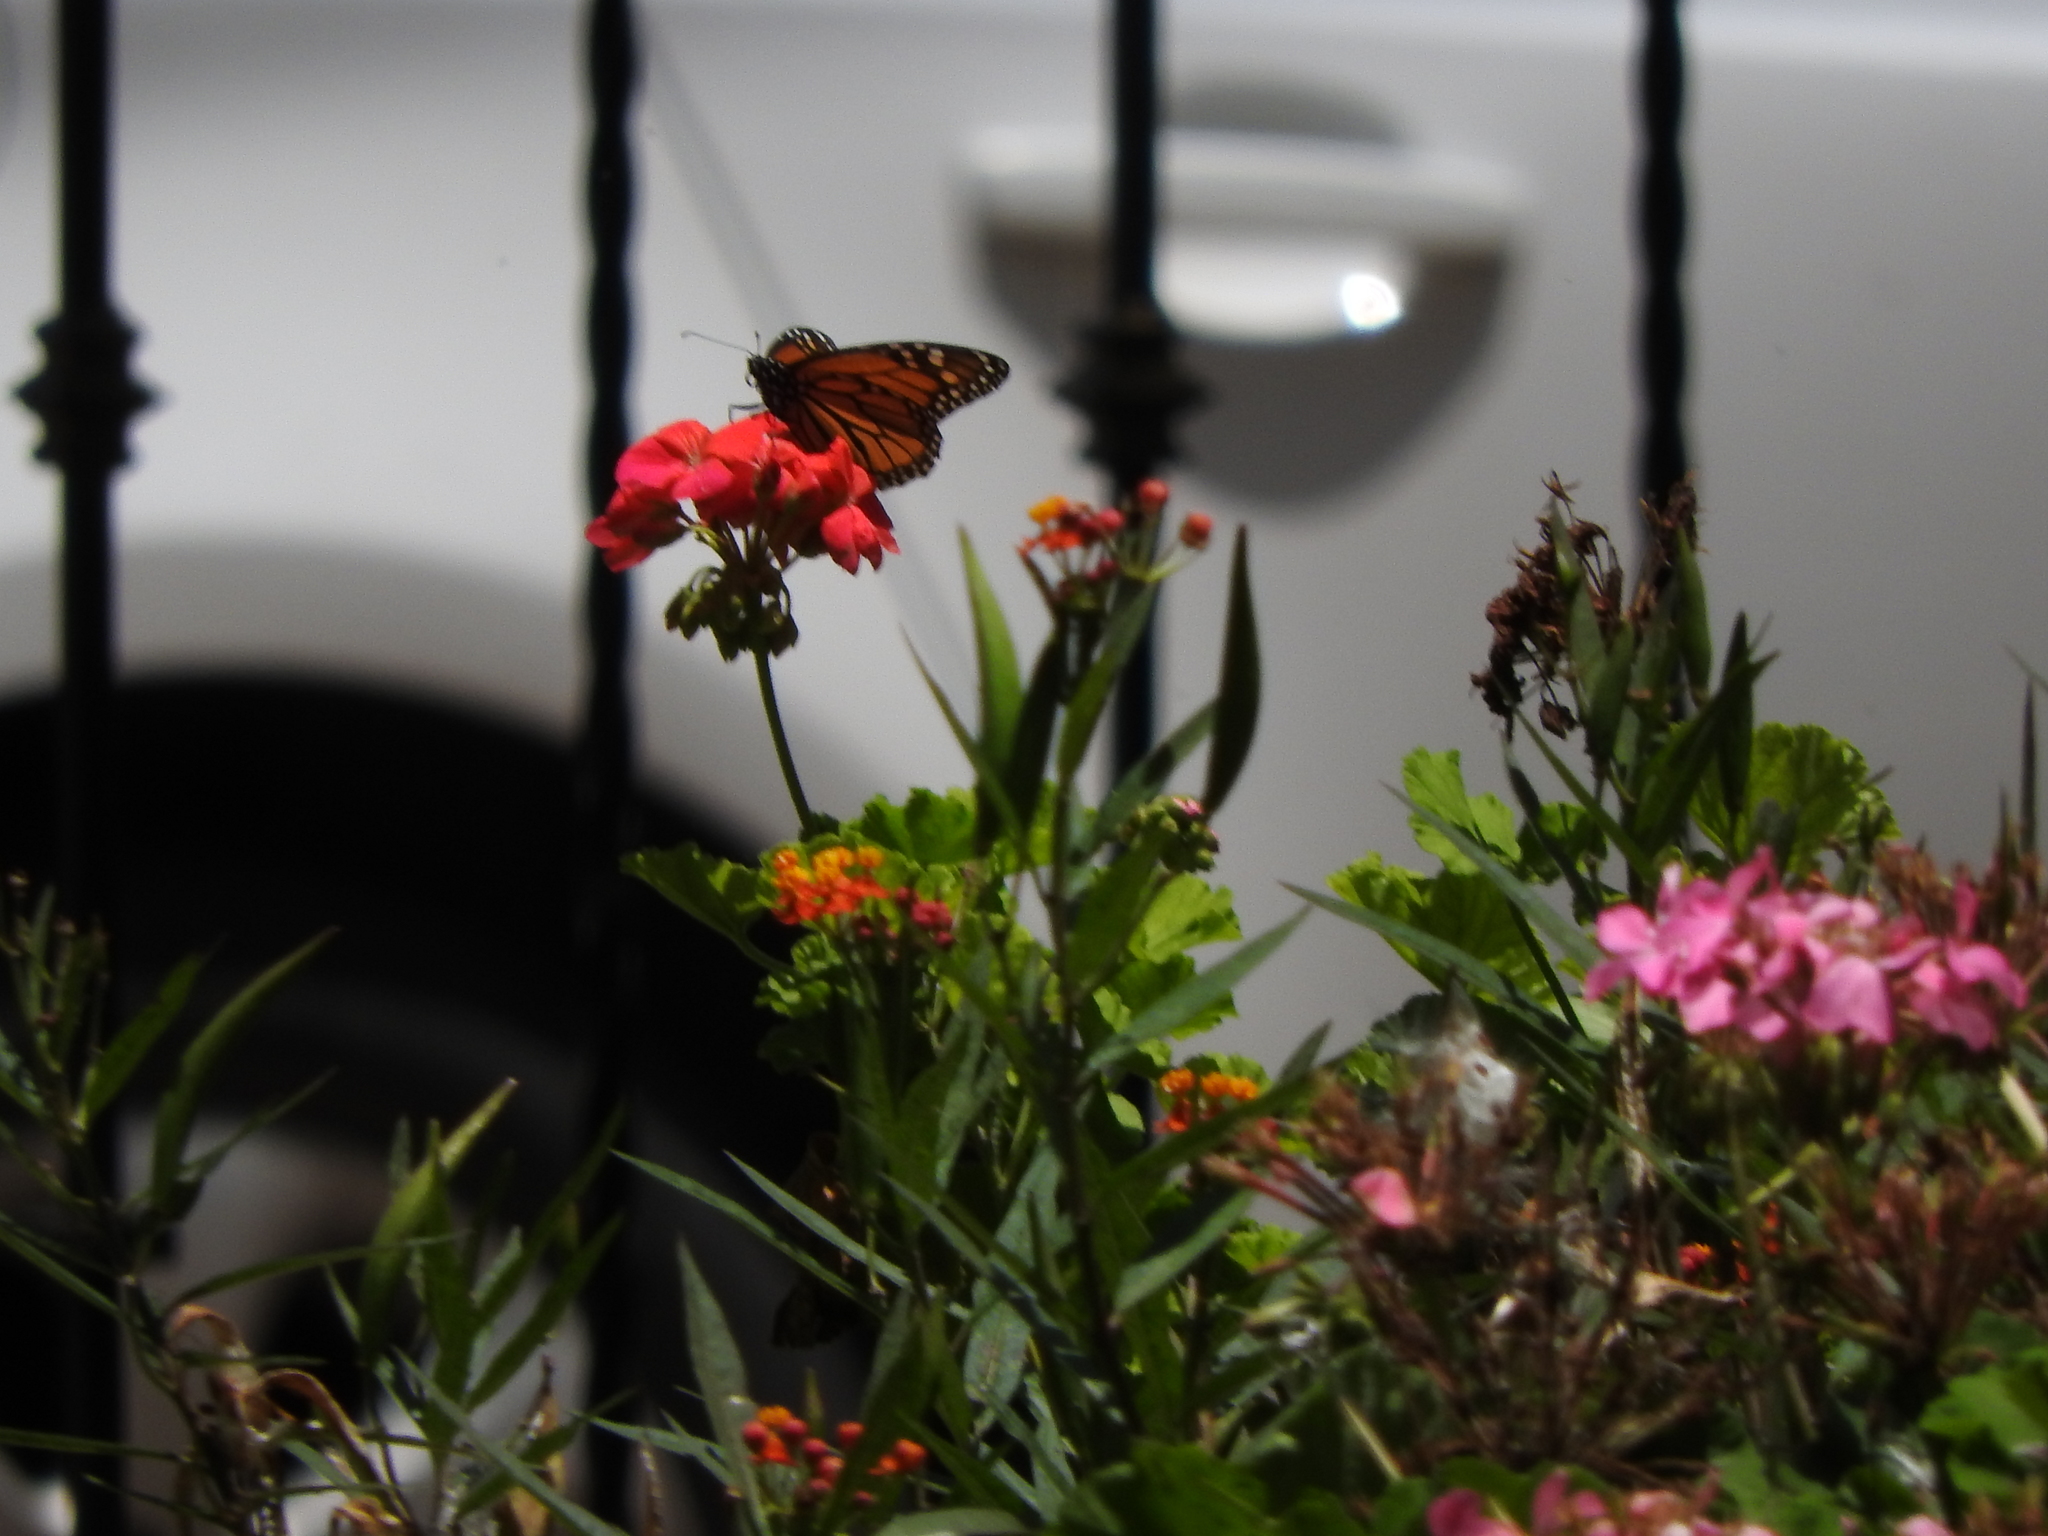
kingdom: Animalia
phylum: Arthropoda
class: Insecta
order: Lepidoptera
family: Nymphalidae
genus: Danaus
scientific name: Danaus plexippus
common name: Monarch
